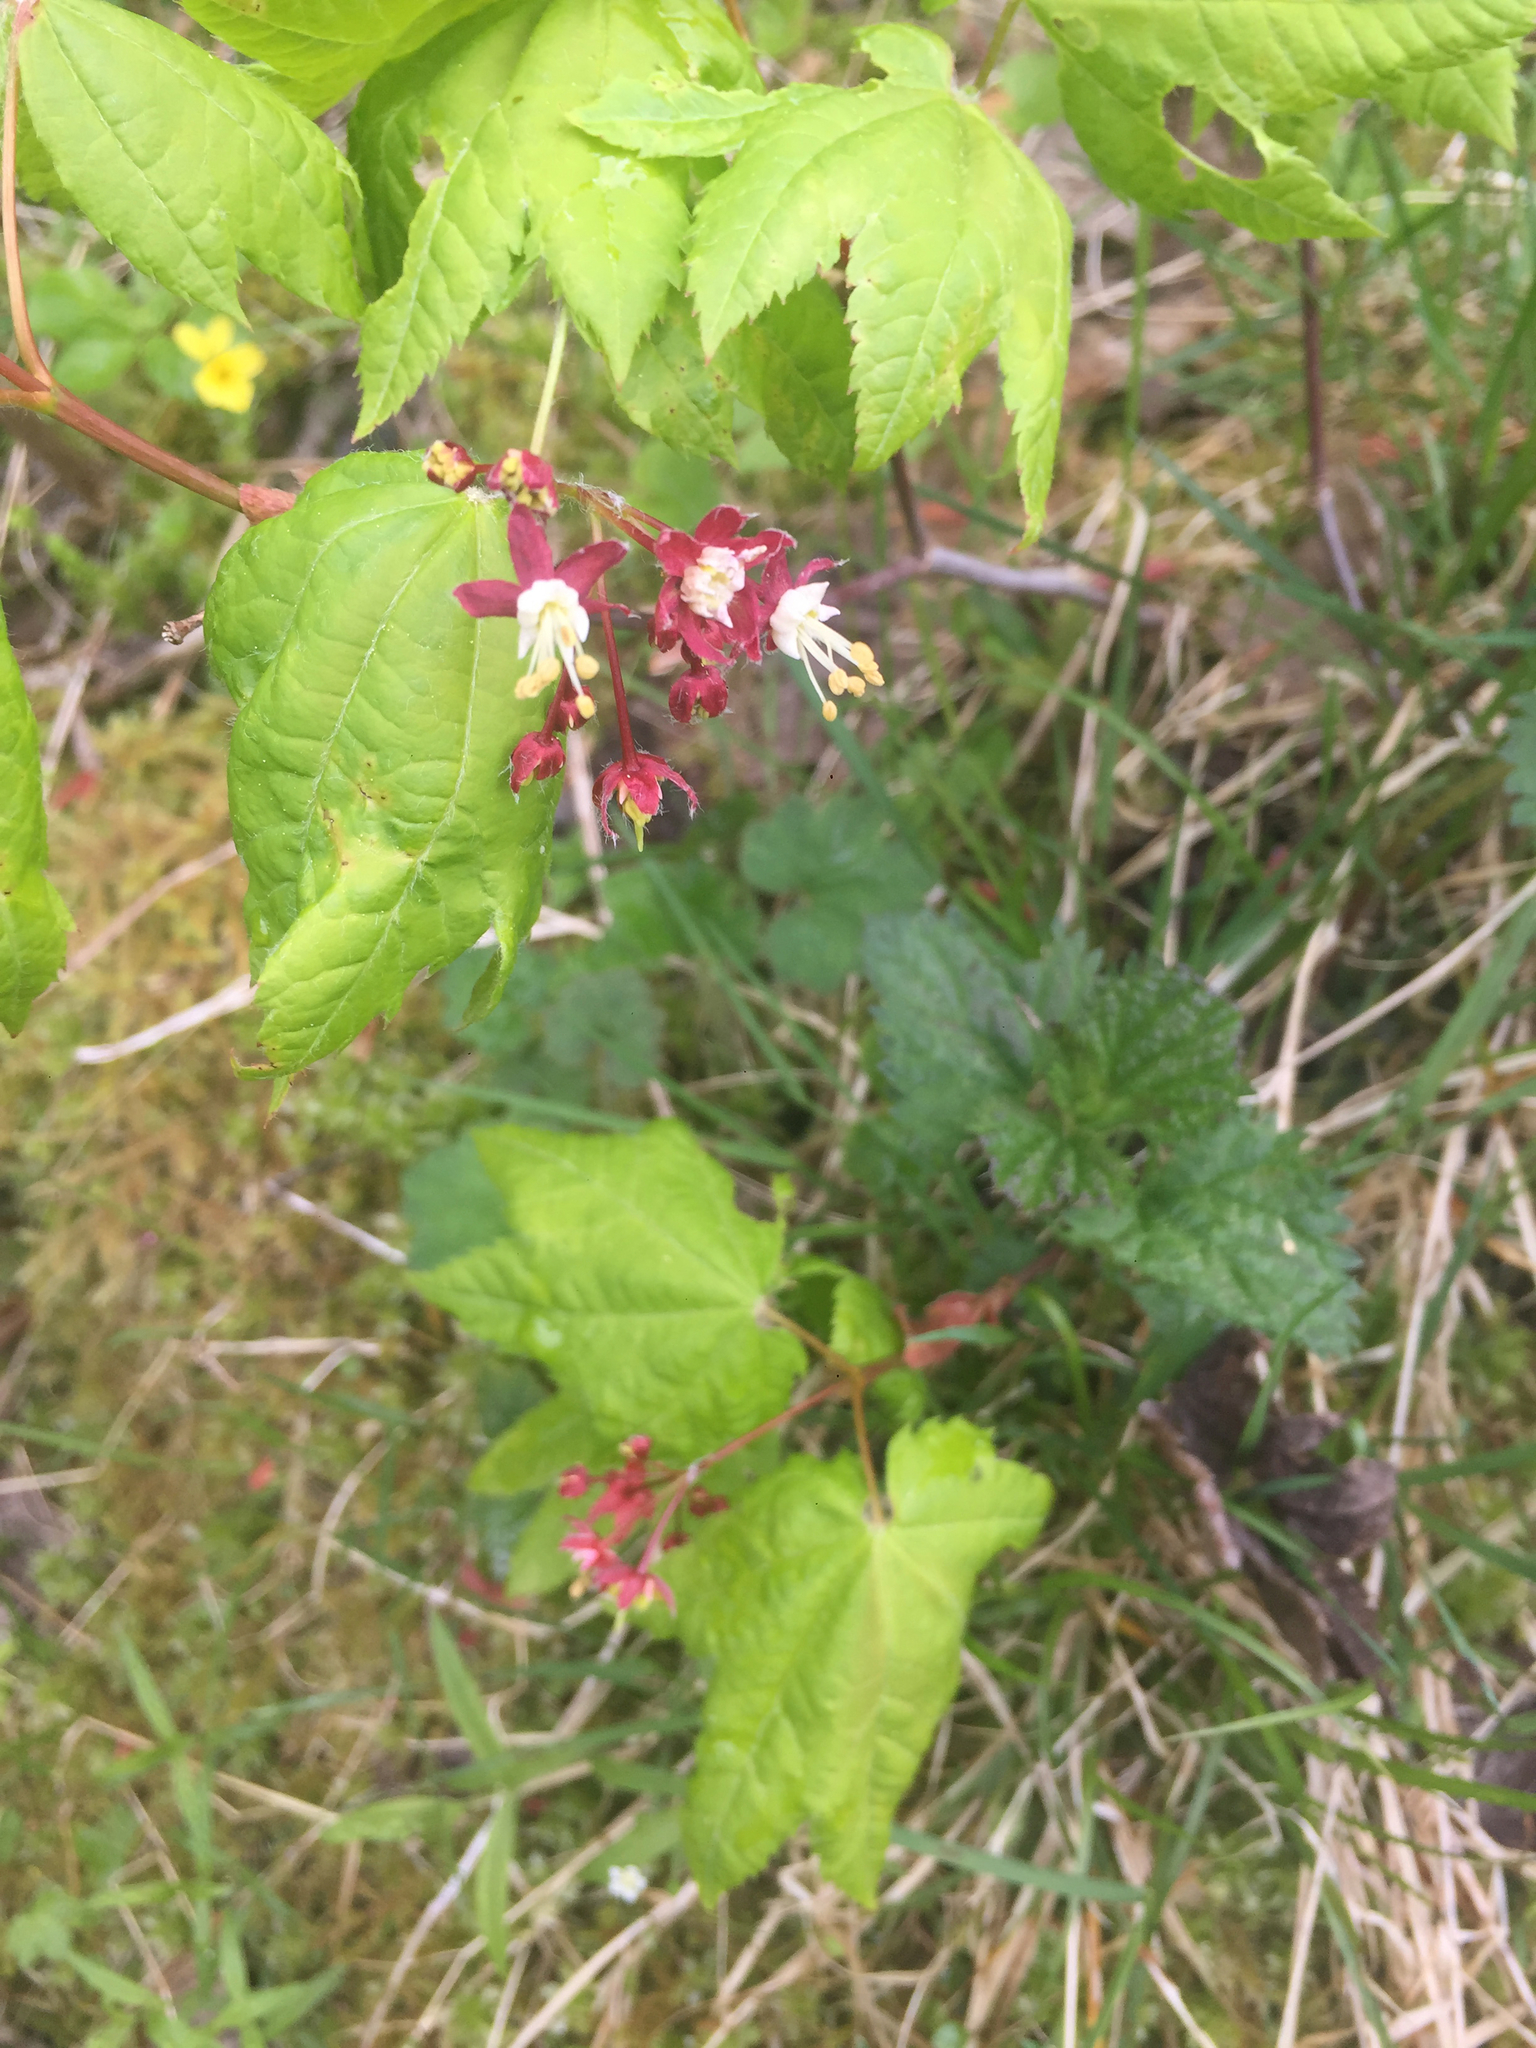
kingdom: Plantae
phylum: Tracheophyta
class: Magnoliopsida
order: Sapindales
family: Sapindaceae
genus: Acer
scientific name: Acer circinatum
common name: Vine maple
